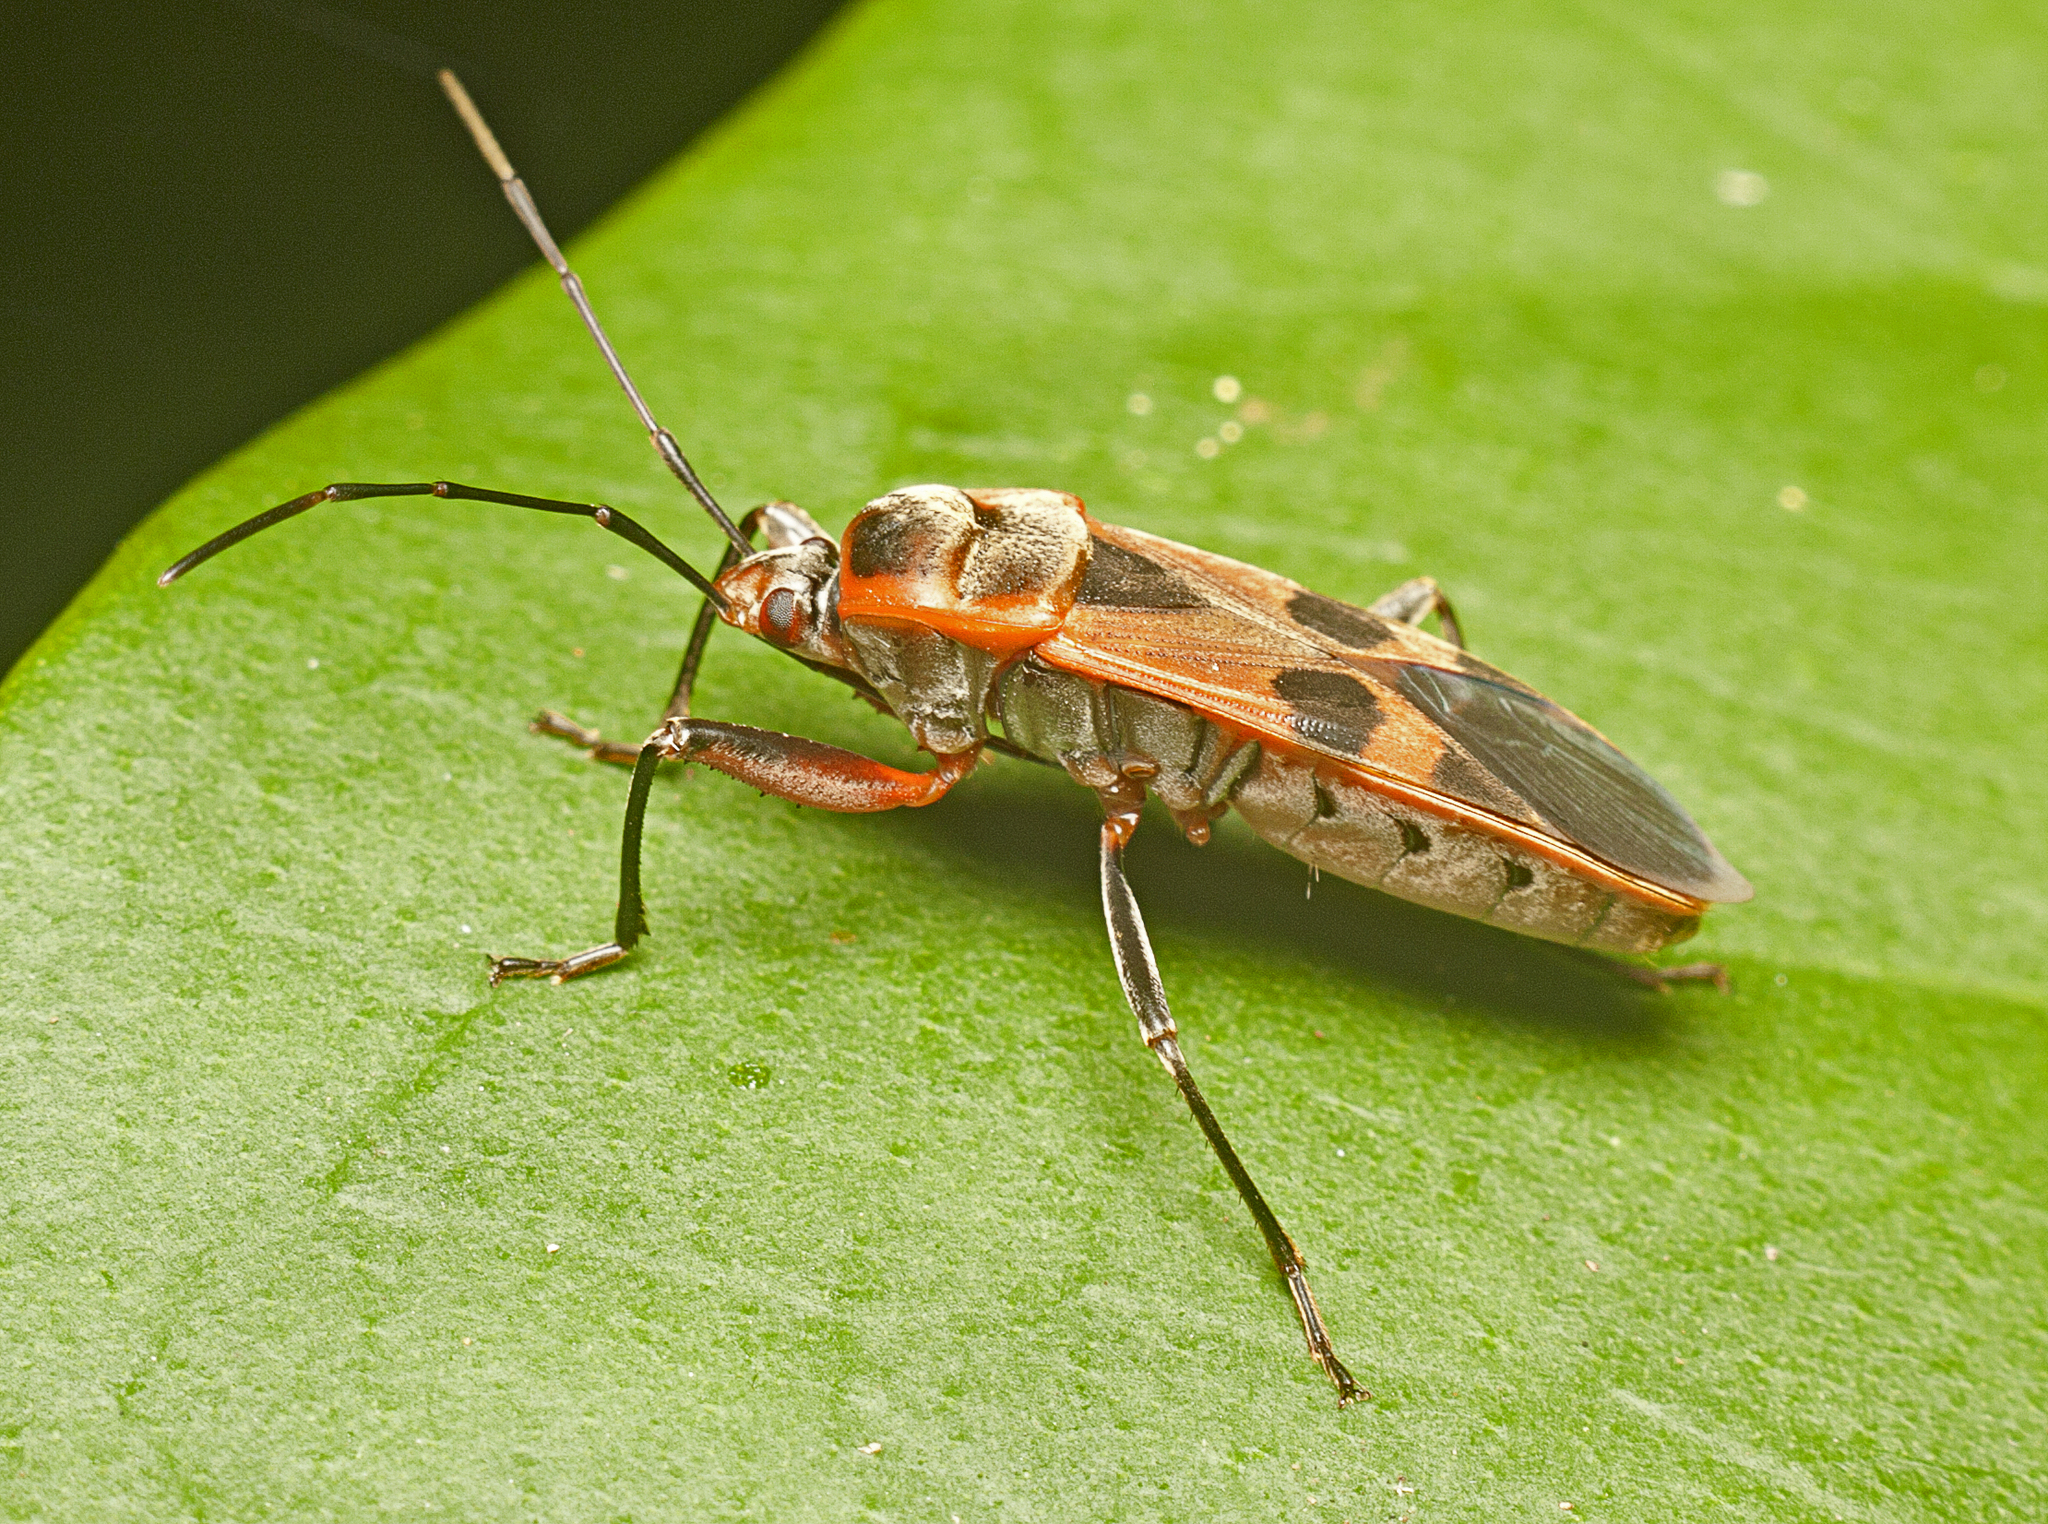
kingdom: Animalia
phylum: Arthropoda
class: Insecta
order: Hemiptera
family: Largidae
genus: Physopelta
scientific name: Physopelta gutta
